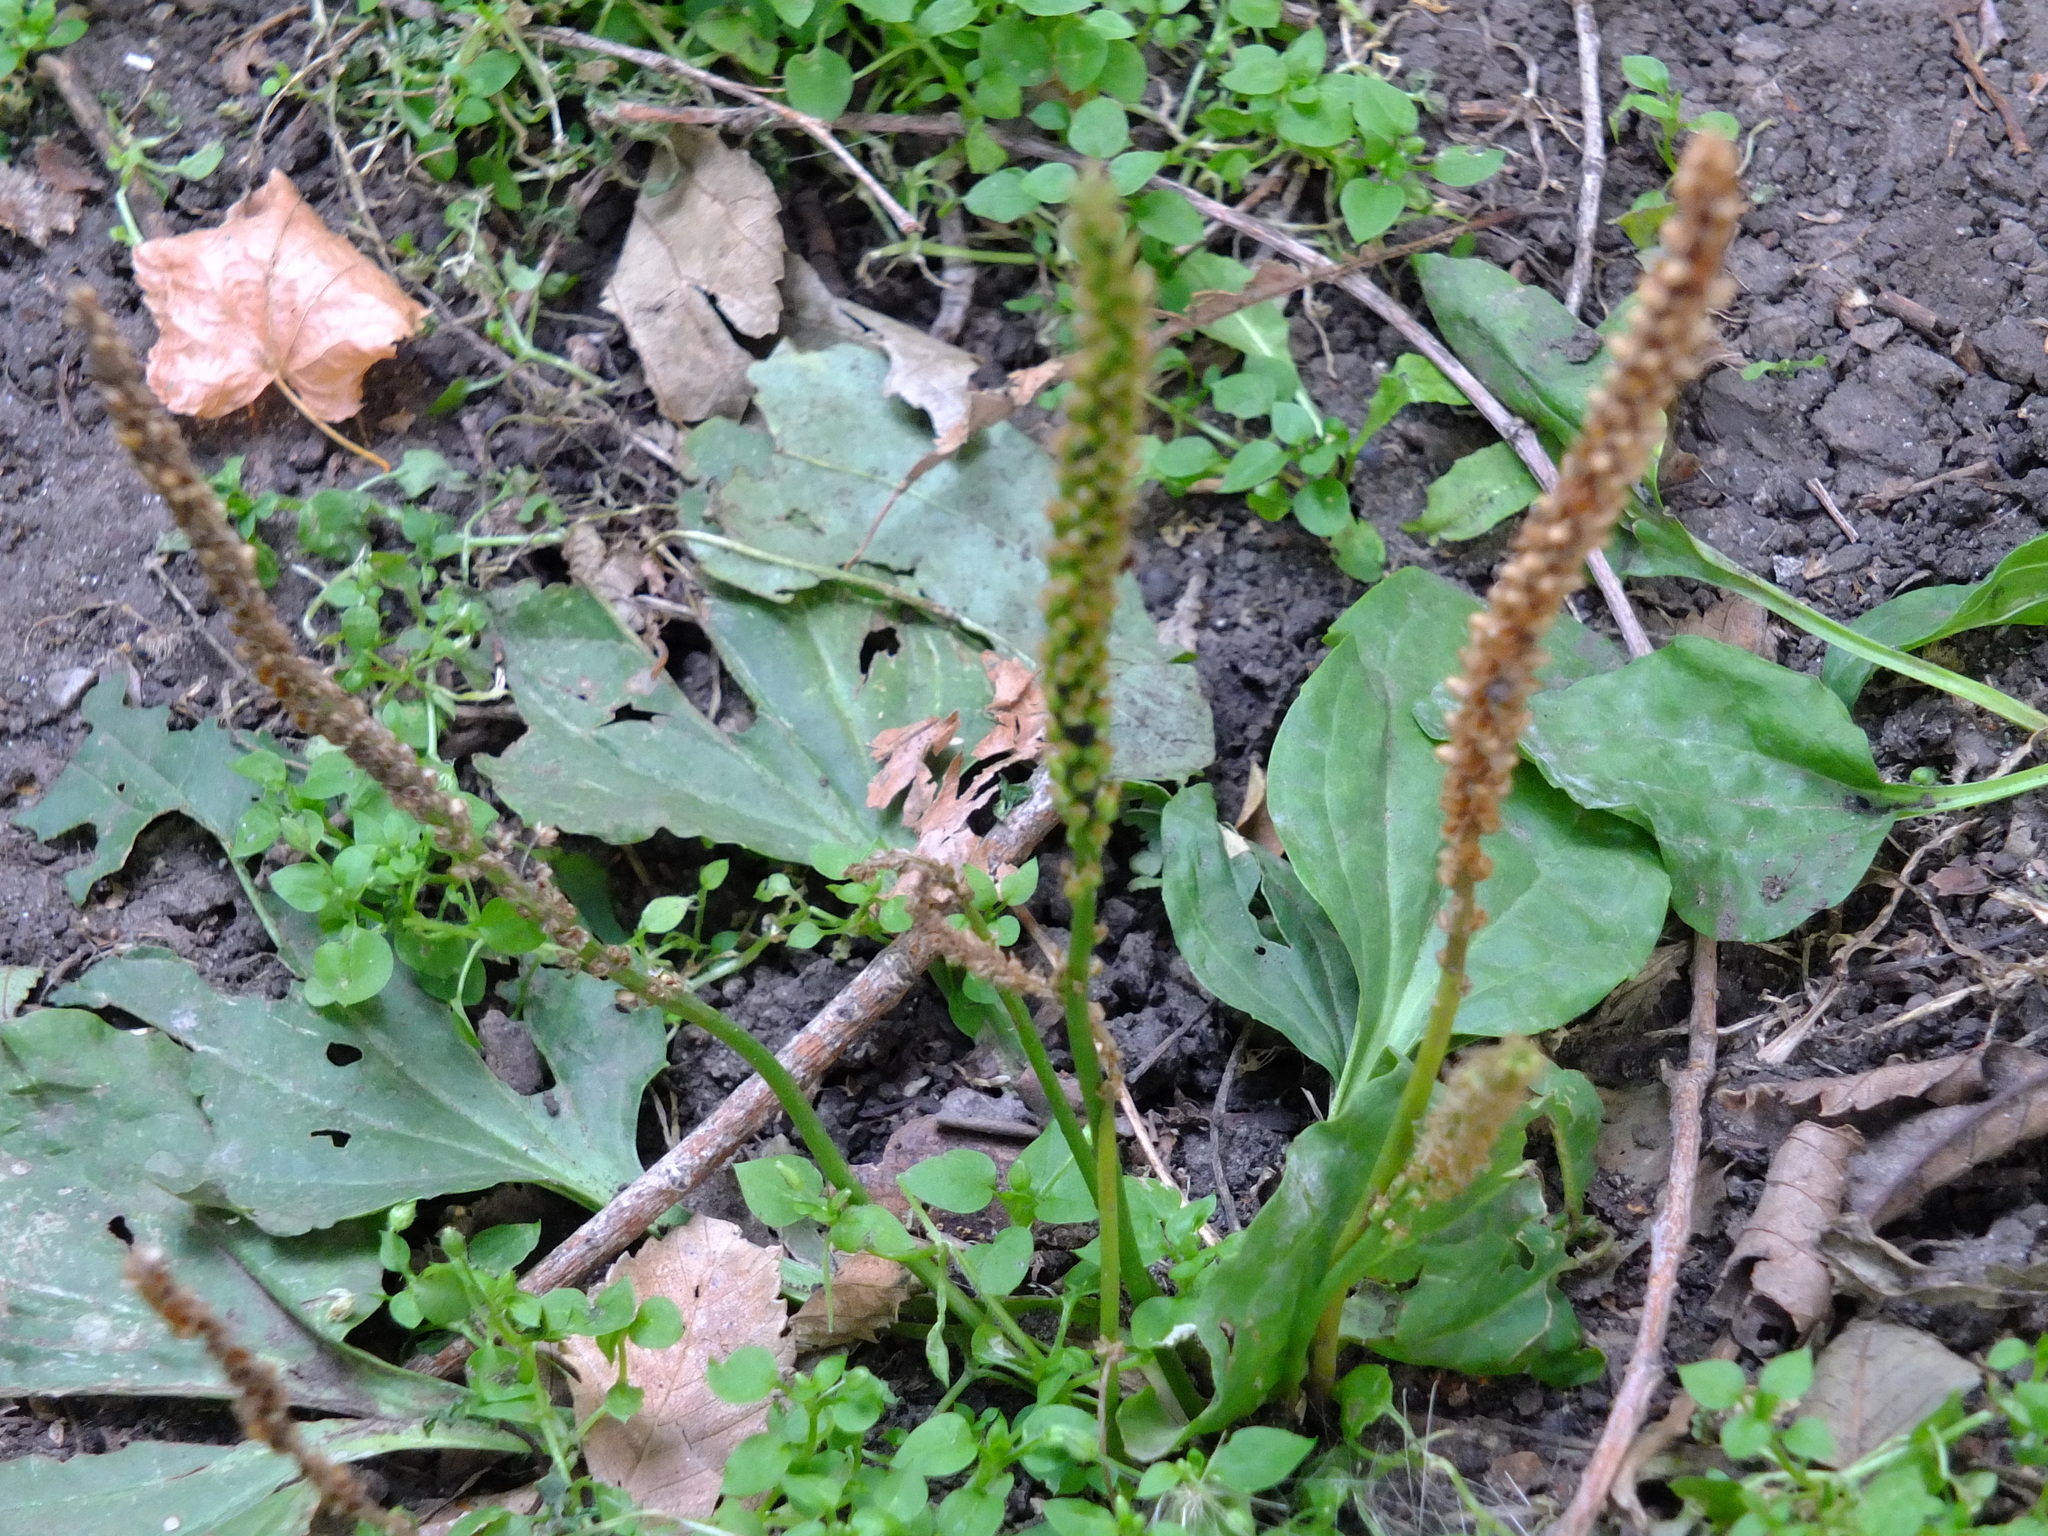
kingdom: Plantae
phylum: Tracheophyta
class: Magnoliopsida
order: Lamiales
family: Plantaginaceae
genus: Plantago
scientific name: Plantago major
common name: Common plantain
